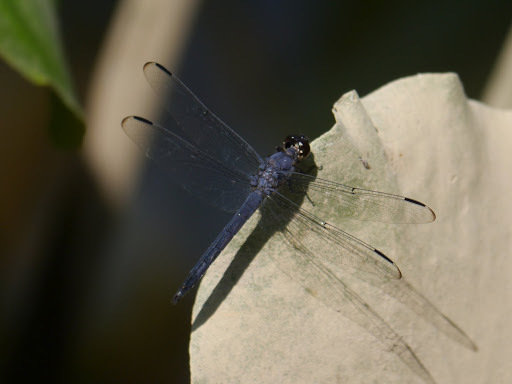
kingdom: Animalia
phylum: Arthropoda
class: Insecta
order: Odonata
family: Libellulidae
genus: Libellula
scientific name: Libellula incesta
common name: Slaty skimmer
